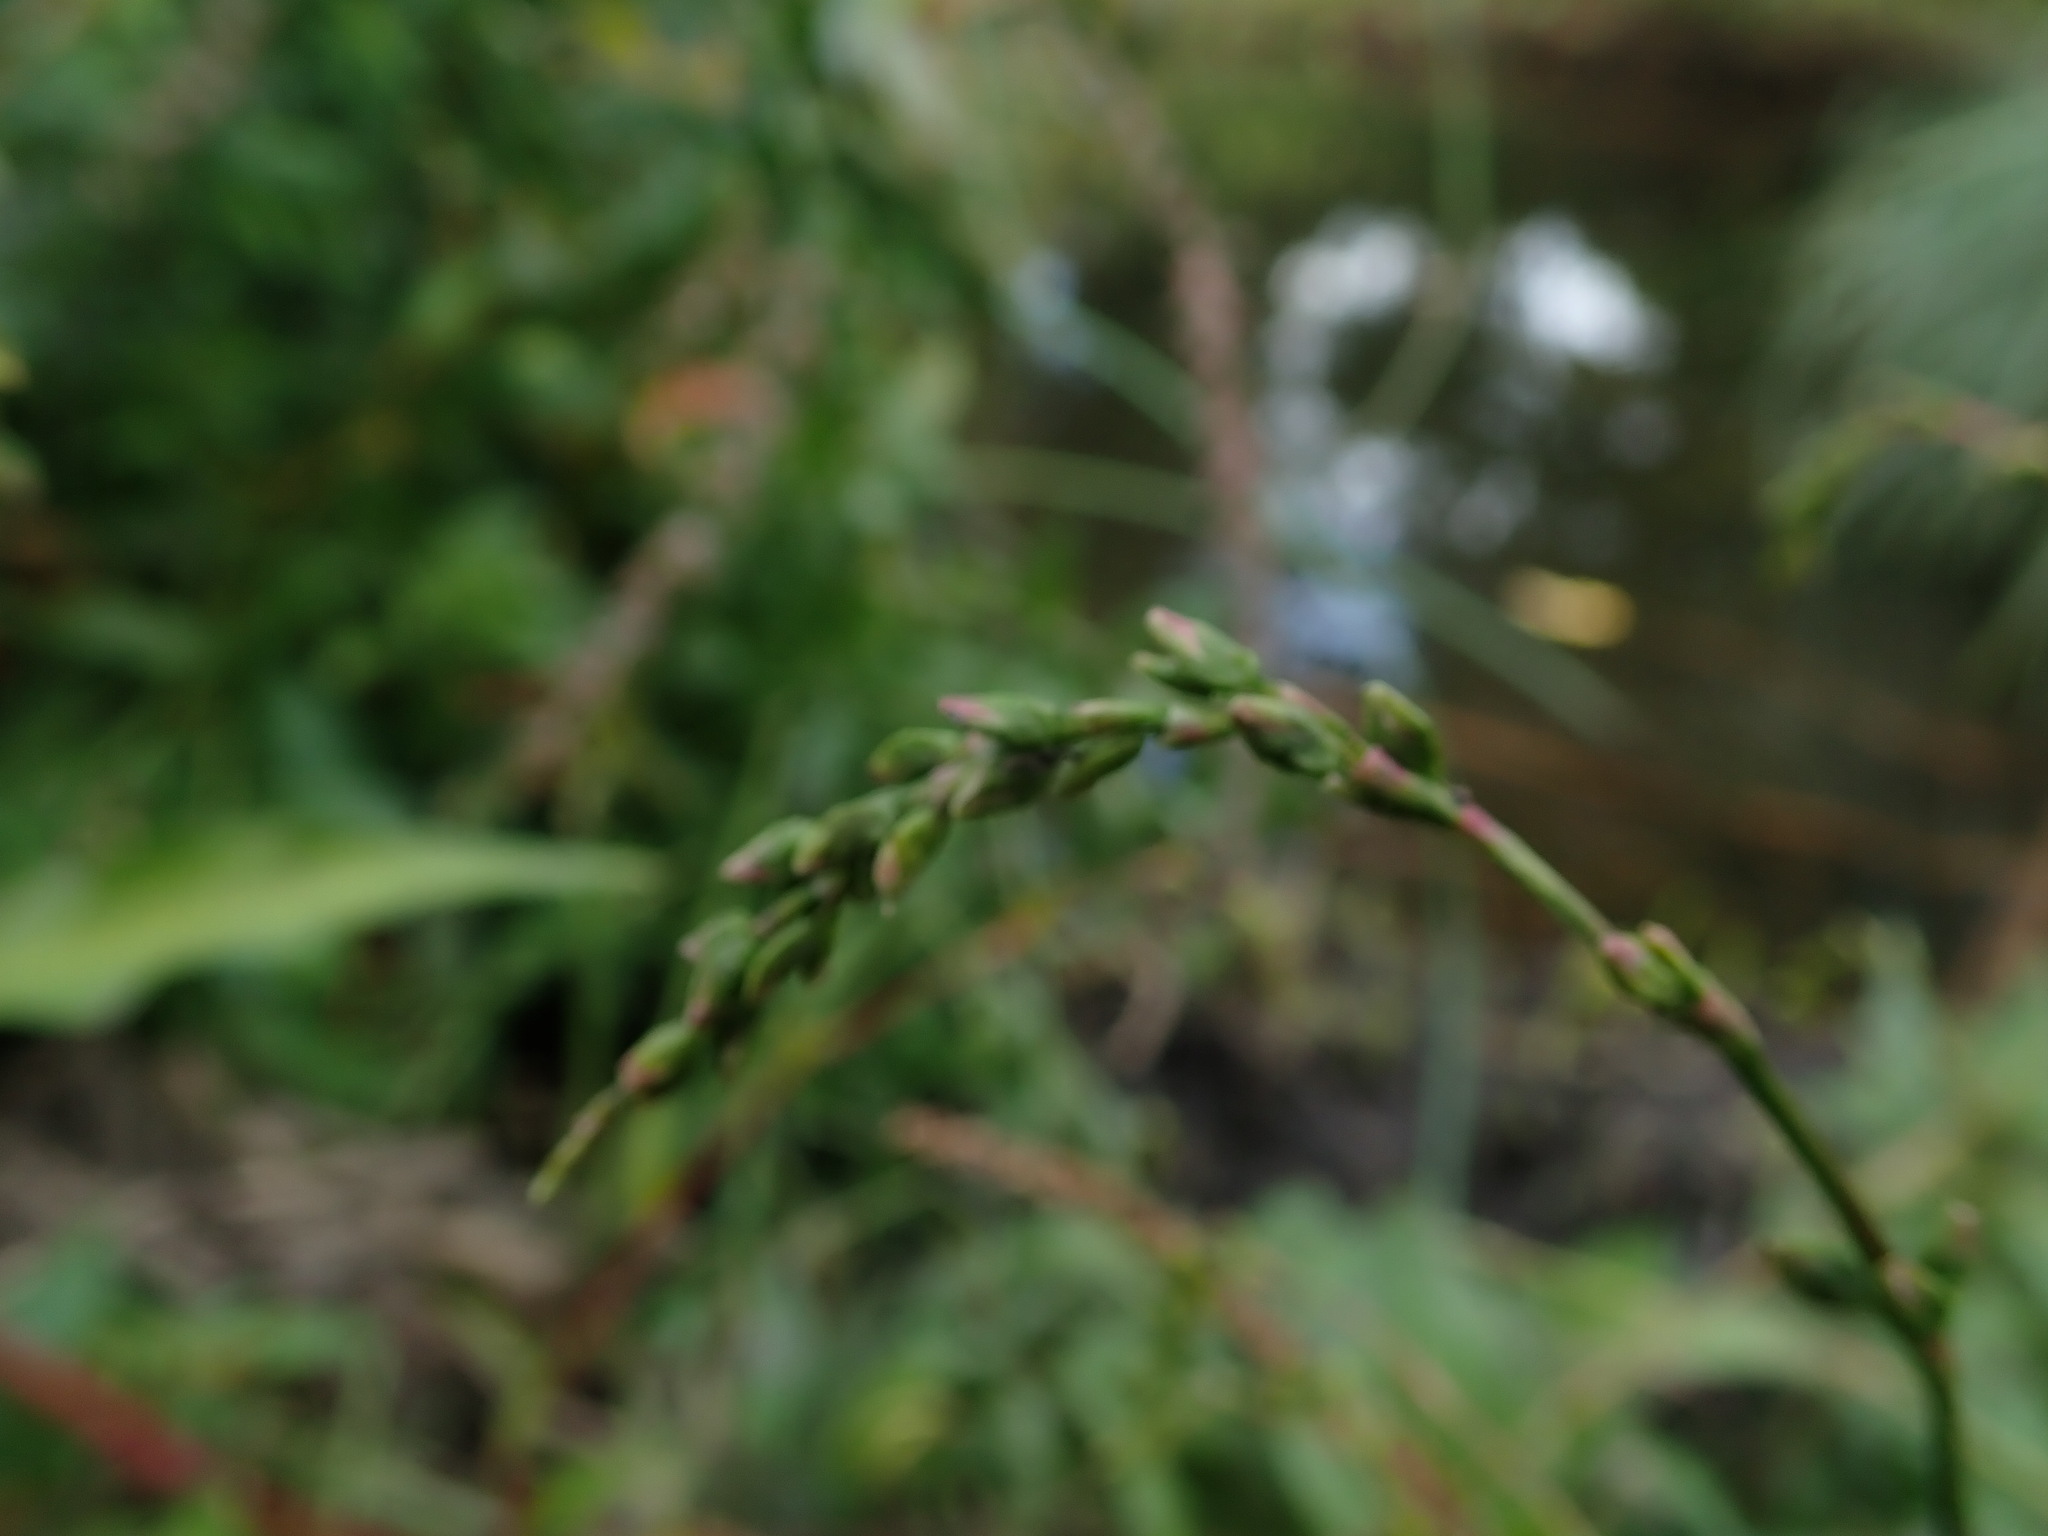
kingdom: Plantae
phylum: Tracheophyta
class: Magnoliopsida
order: Caryophyllales
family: Polygonaceae
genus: Persicaria
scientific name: Persicaria hydropiper
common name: Water-pepper
